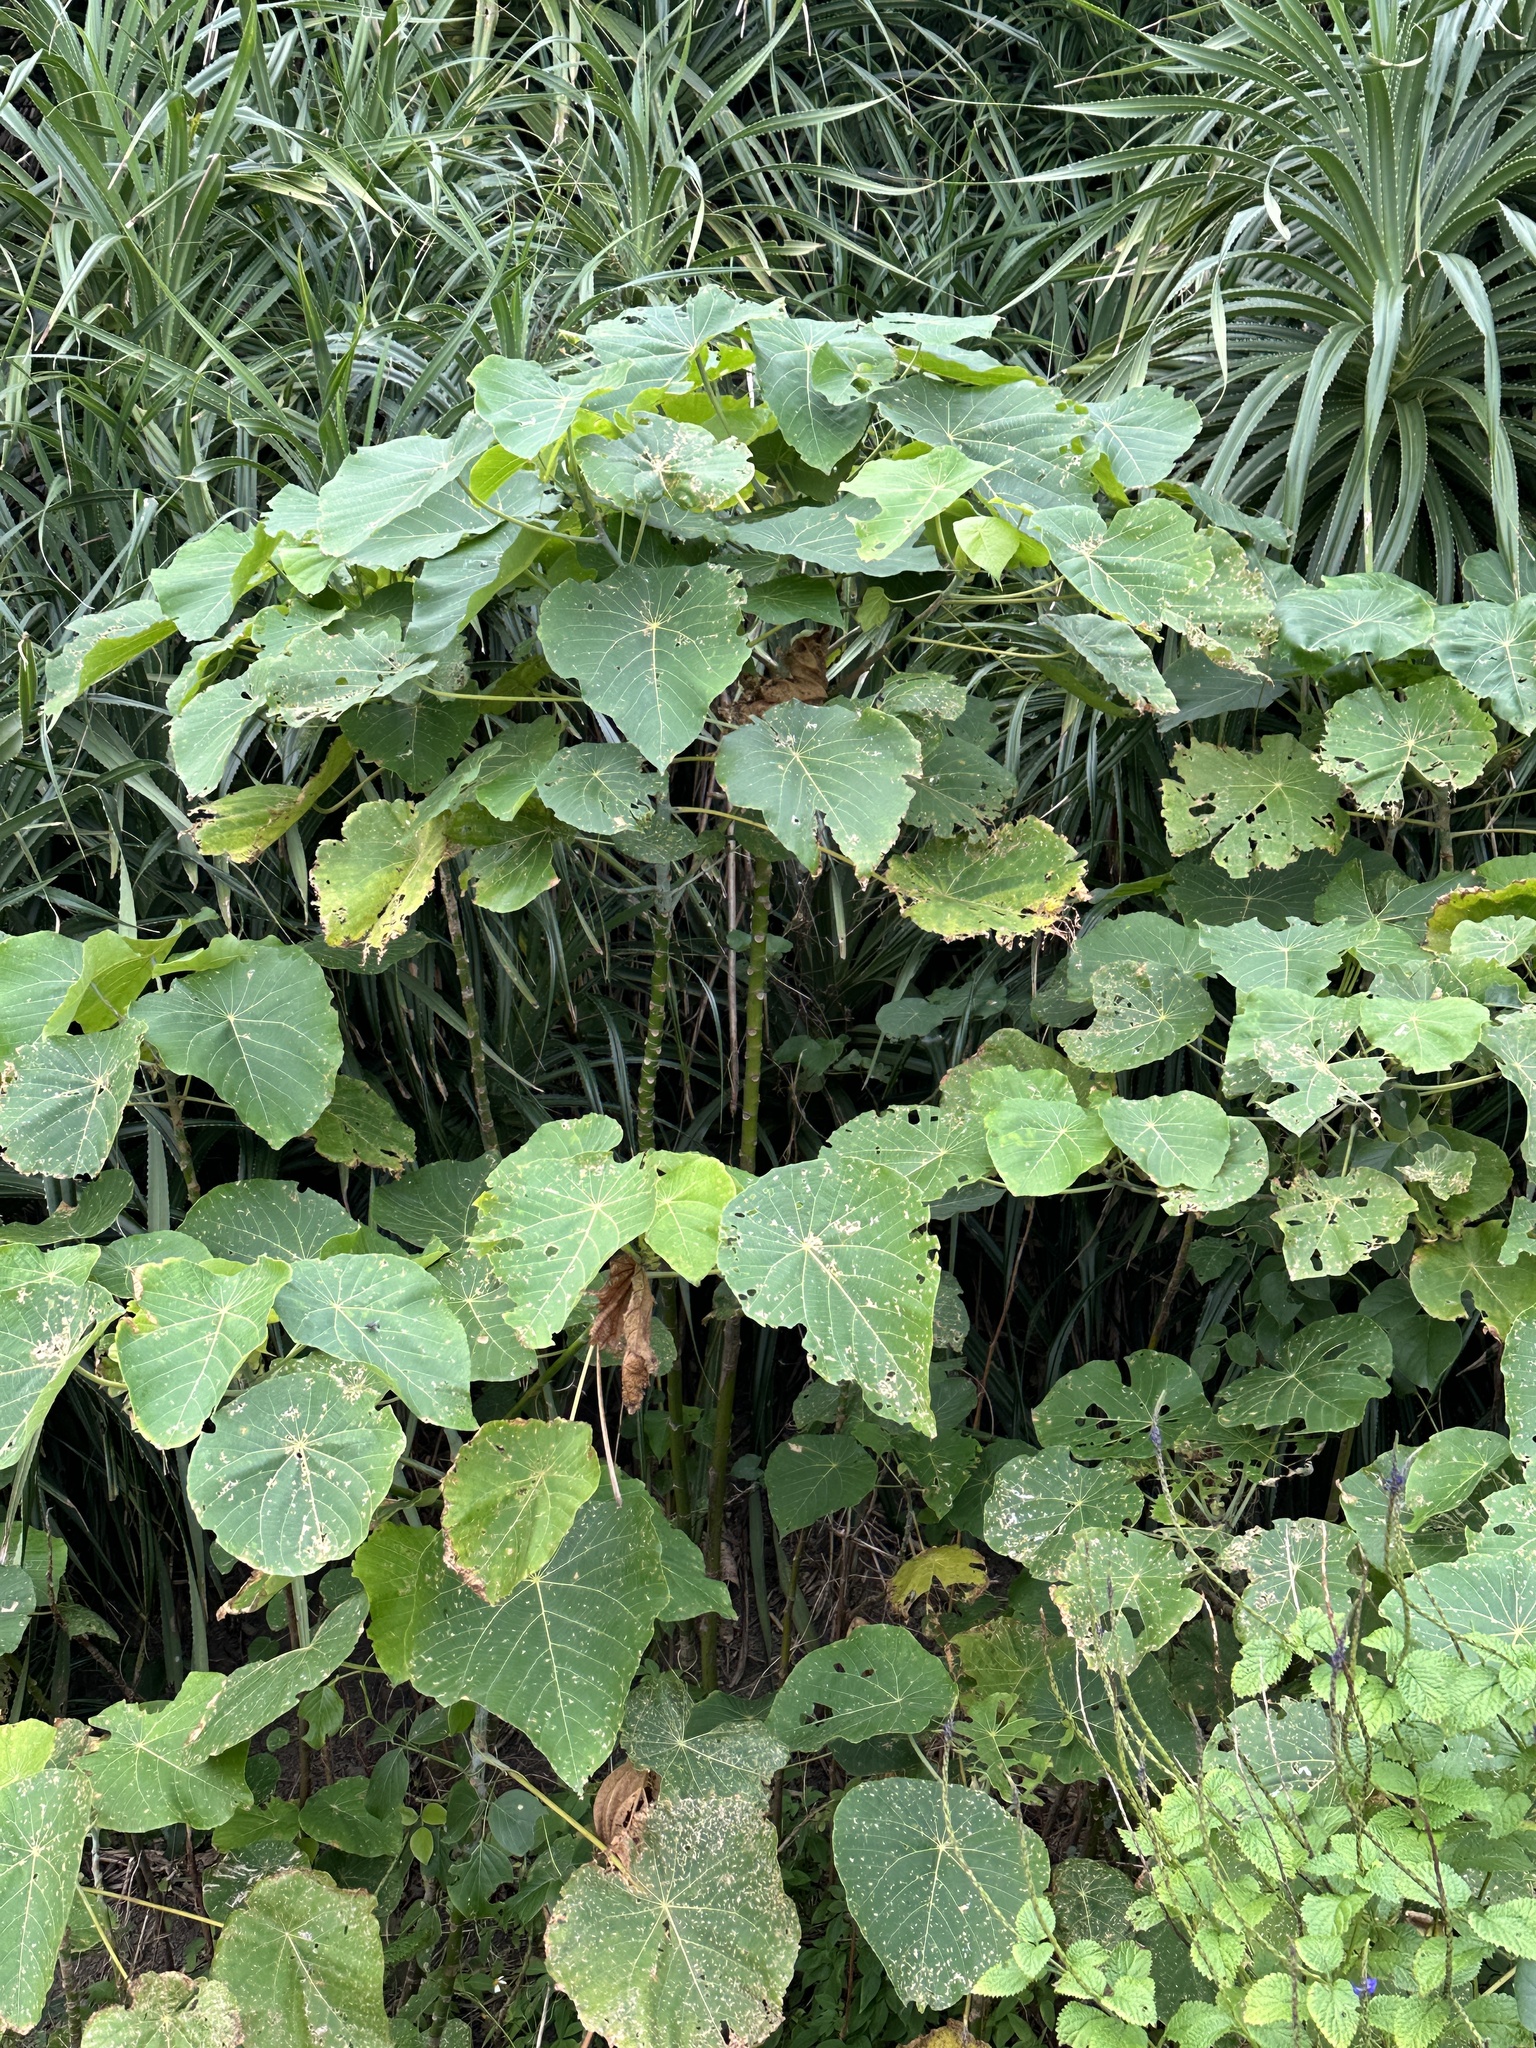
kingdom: Plantae
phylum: Tracheophyta
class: Magnoliopsida
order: Malpighiales
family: Euphorbiaceae
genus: Macaranga
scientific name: Macaranga tanarius
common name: Parasol leaf tree
